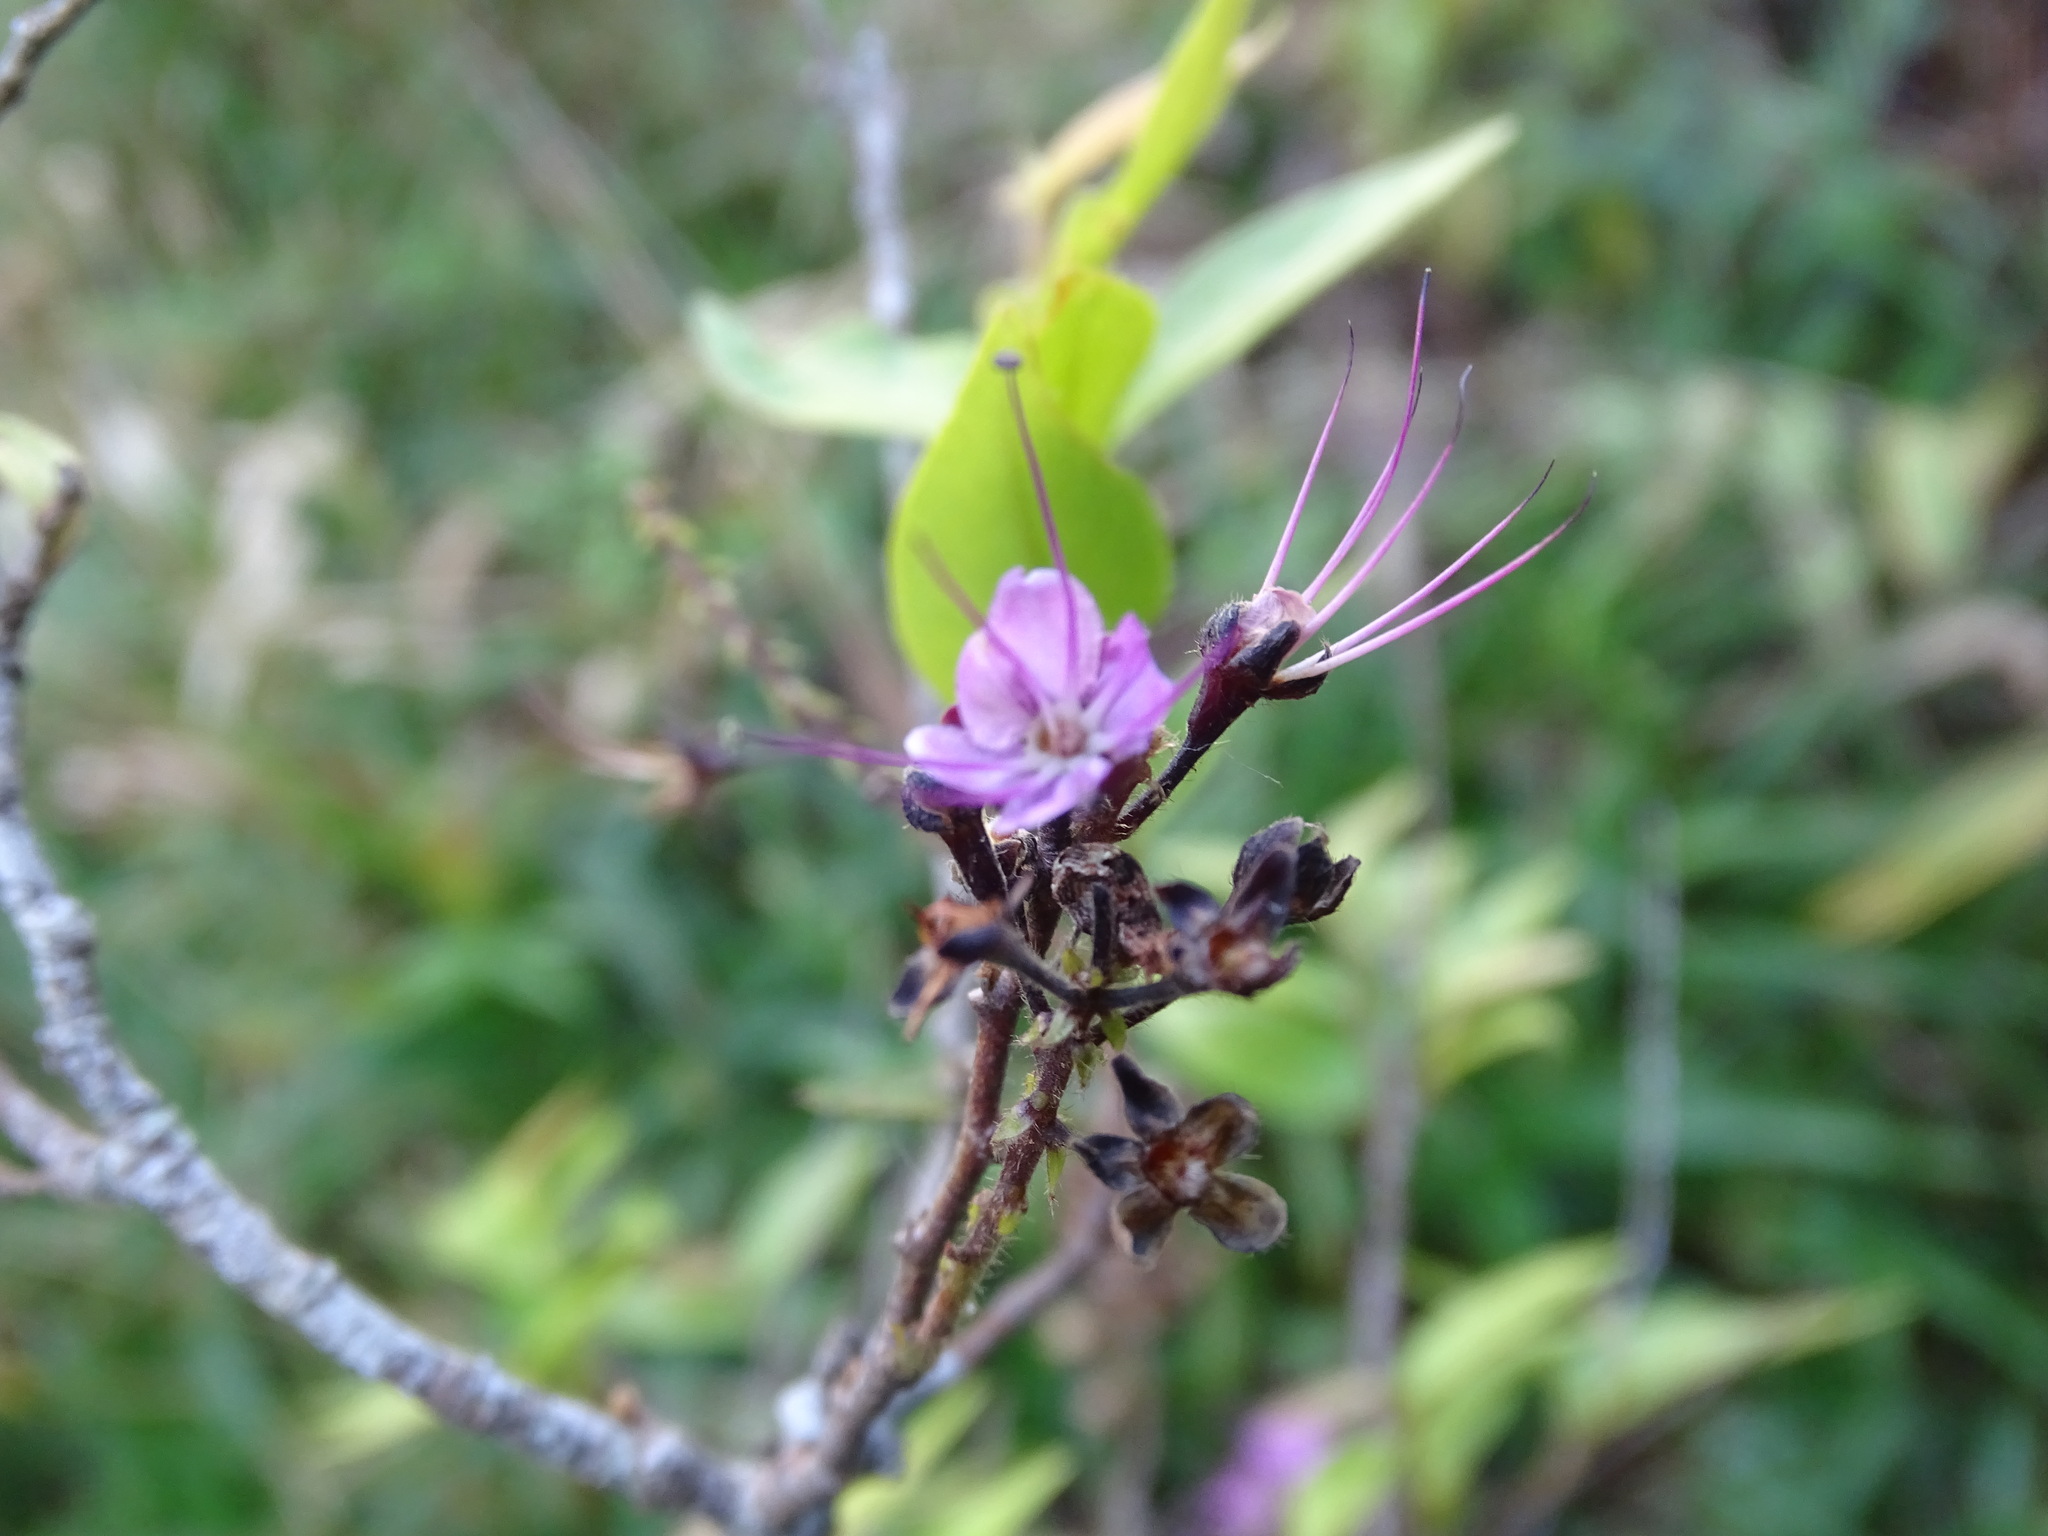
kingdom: Plantae
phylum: Tracheophyta
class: Magnoliopsida
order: Malpighiales
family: Chrysobalanaceae
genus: Hirtella
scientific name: Hirtella racemosa
